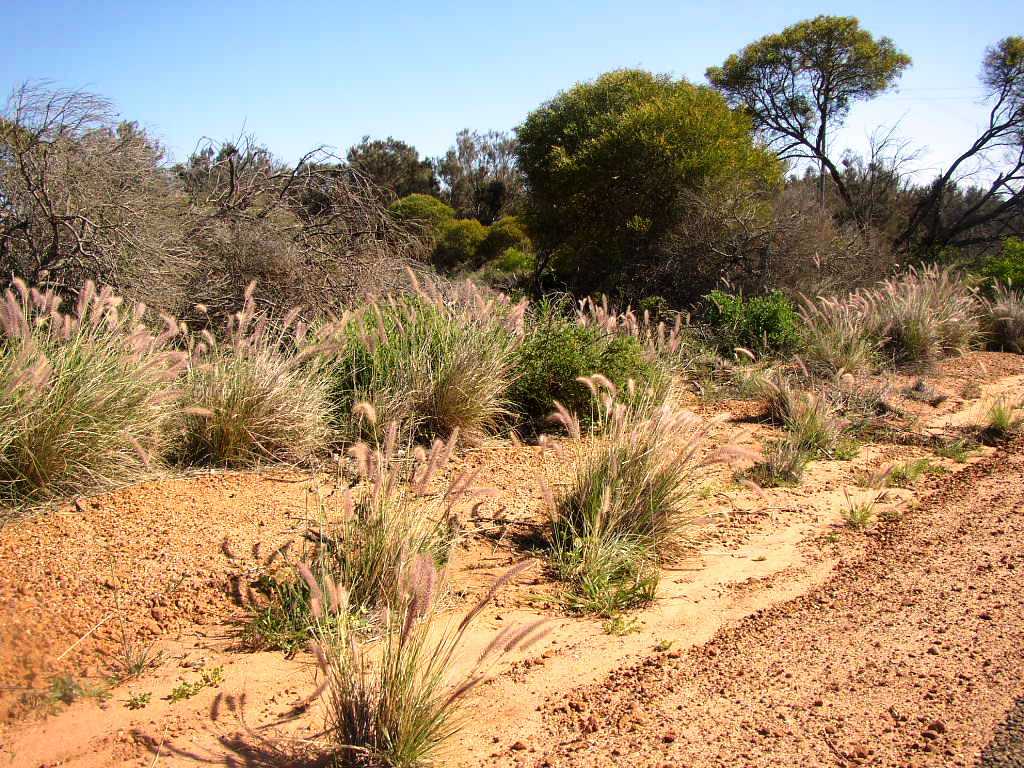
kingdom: Plantae
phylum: Tracheophyta
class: Liliopsida
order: Poales
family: Poaceae
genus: Cenchrus
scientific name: Cenchrus setaceus
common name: Crimson fountaingrass
